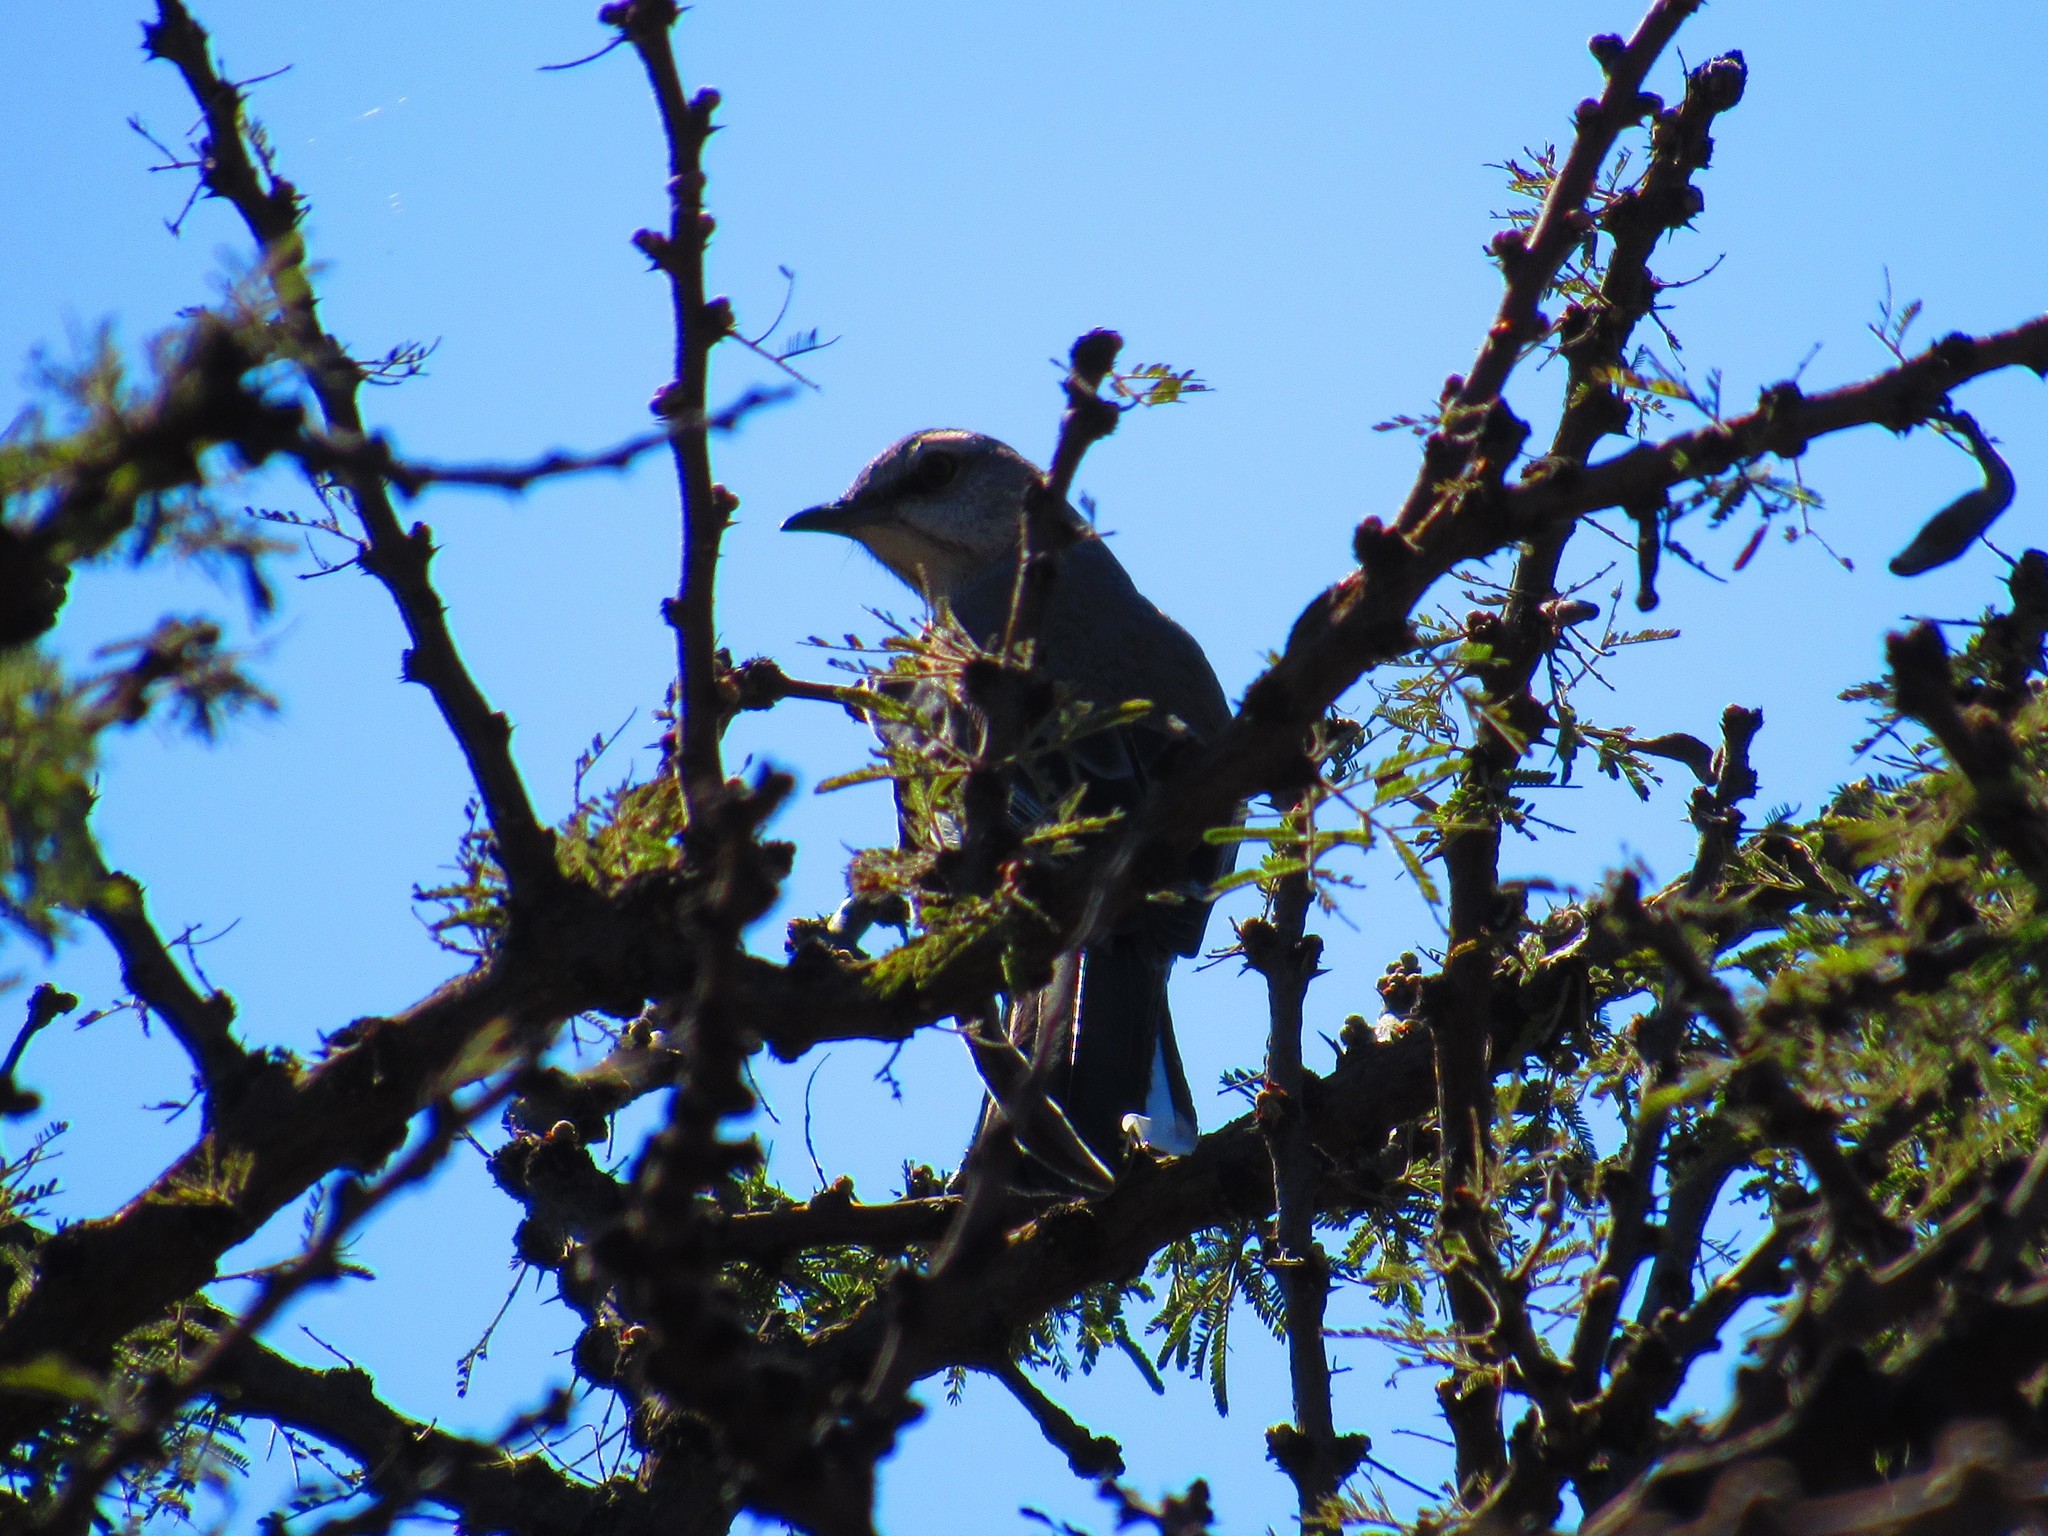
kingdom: Animalia
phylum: Chordata
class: Aves
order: Passeriformes
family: Mimidae
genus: Mimus
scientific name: Mimus polyglottos
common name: Northern mockingbird
